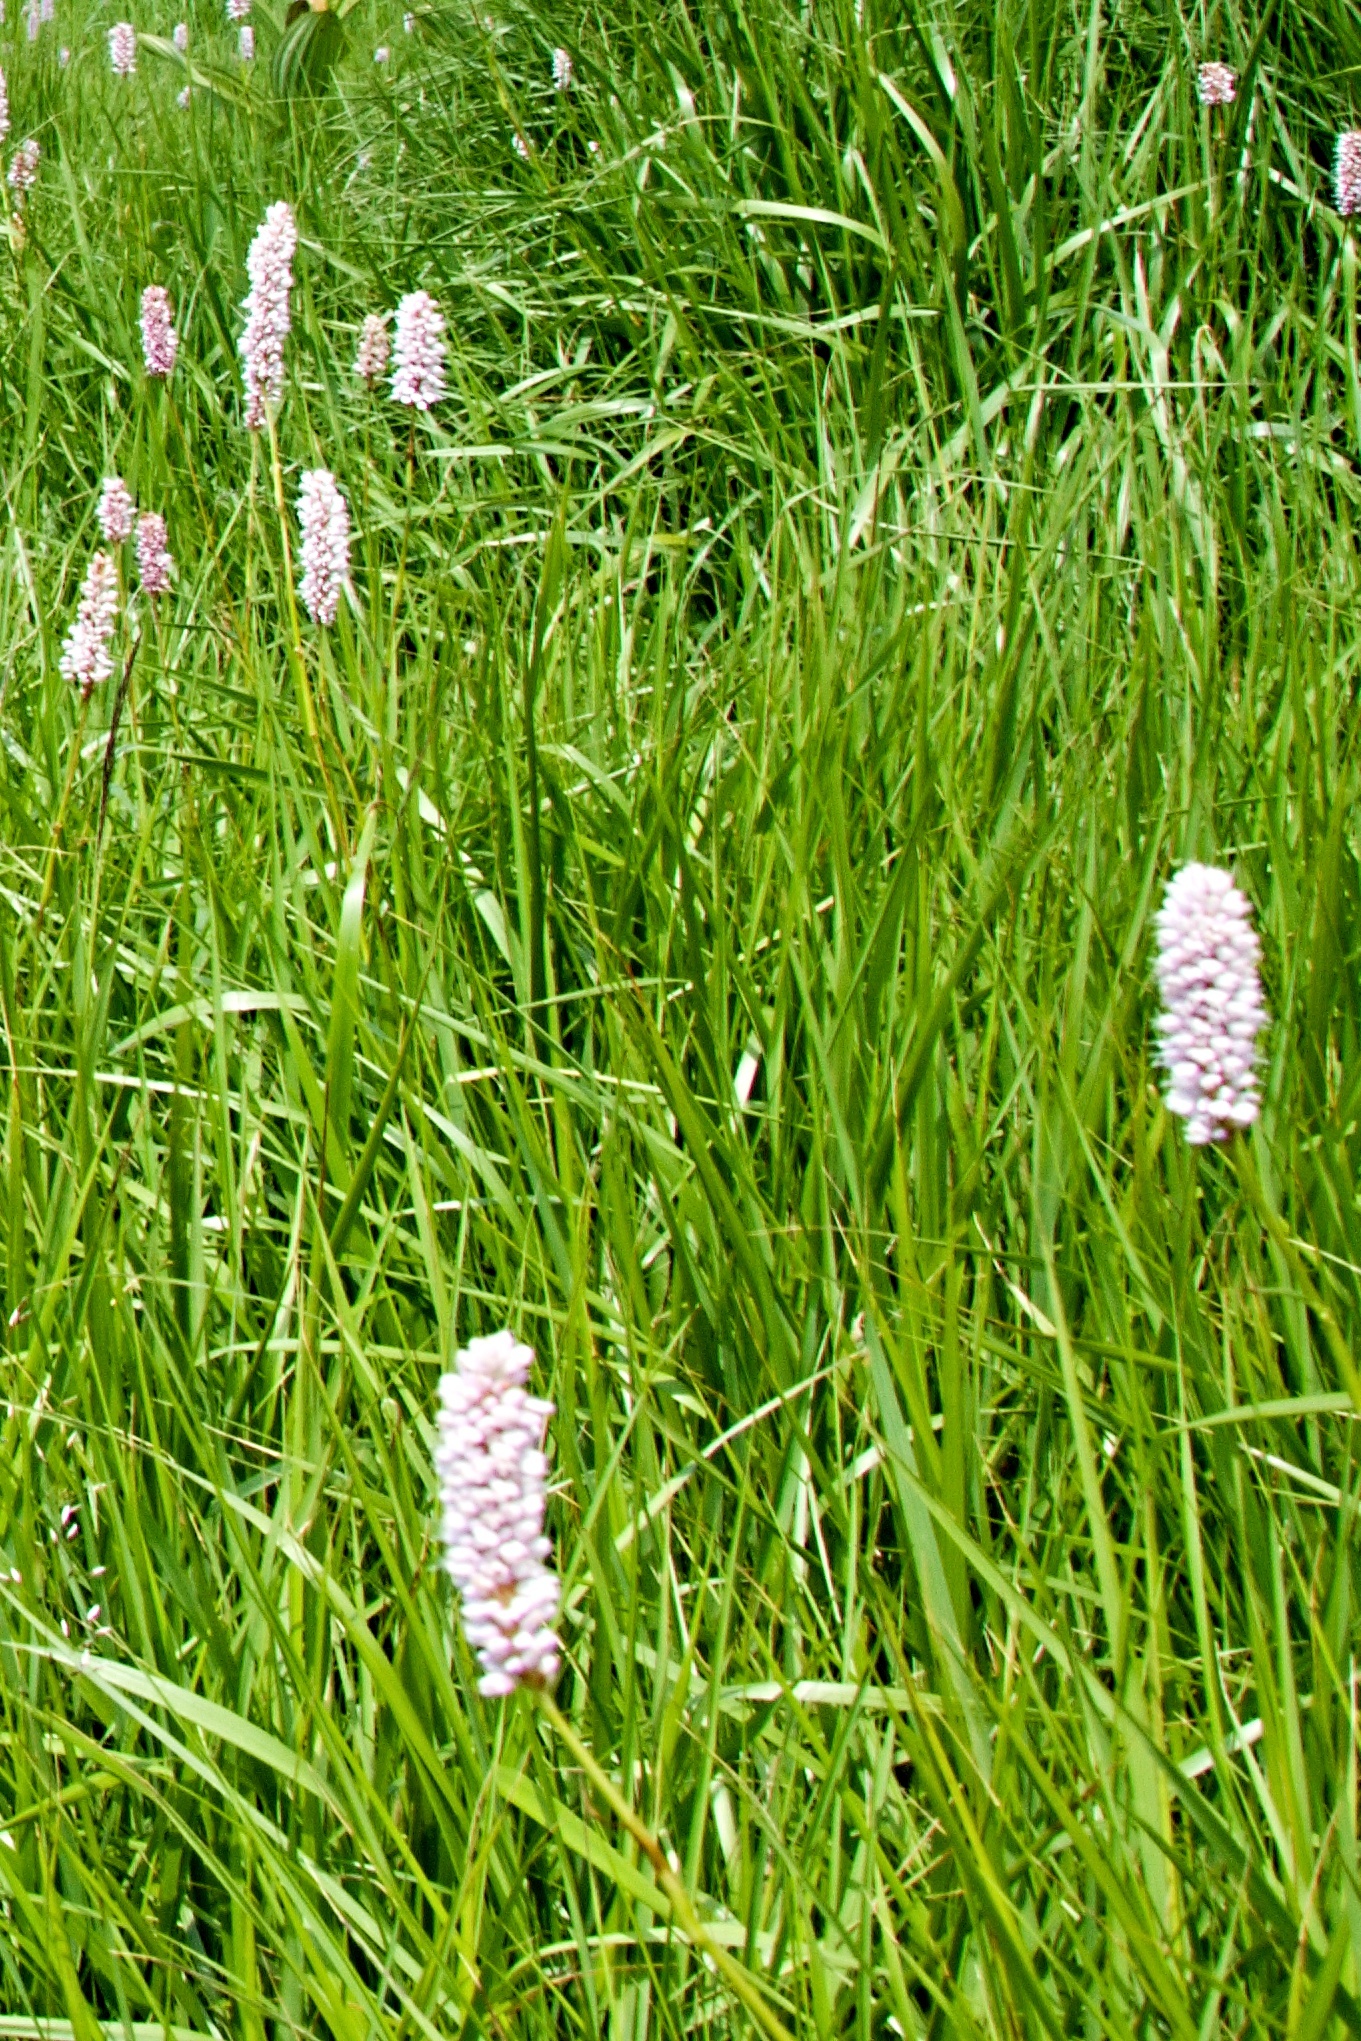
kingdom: Plantae
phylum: Tracheophyta
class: Magnoliopsida
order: Caryophyllales
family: Polygonaceae
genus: Bistorta
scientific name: Bistorta officinalis
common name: Common bistort
